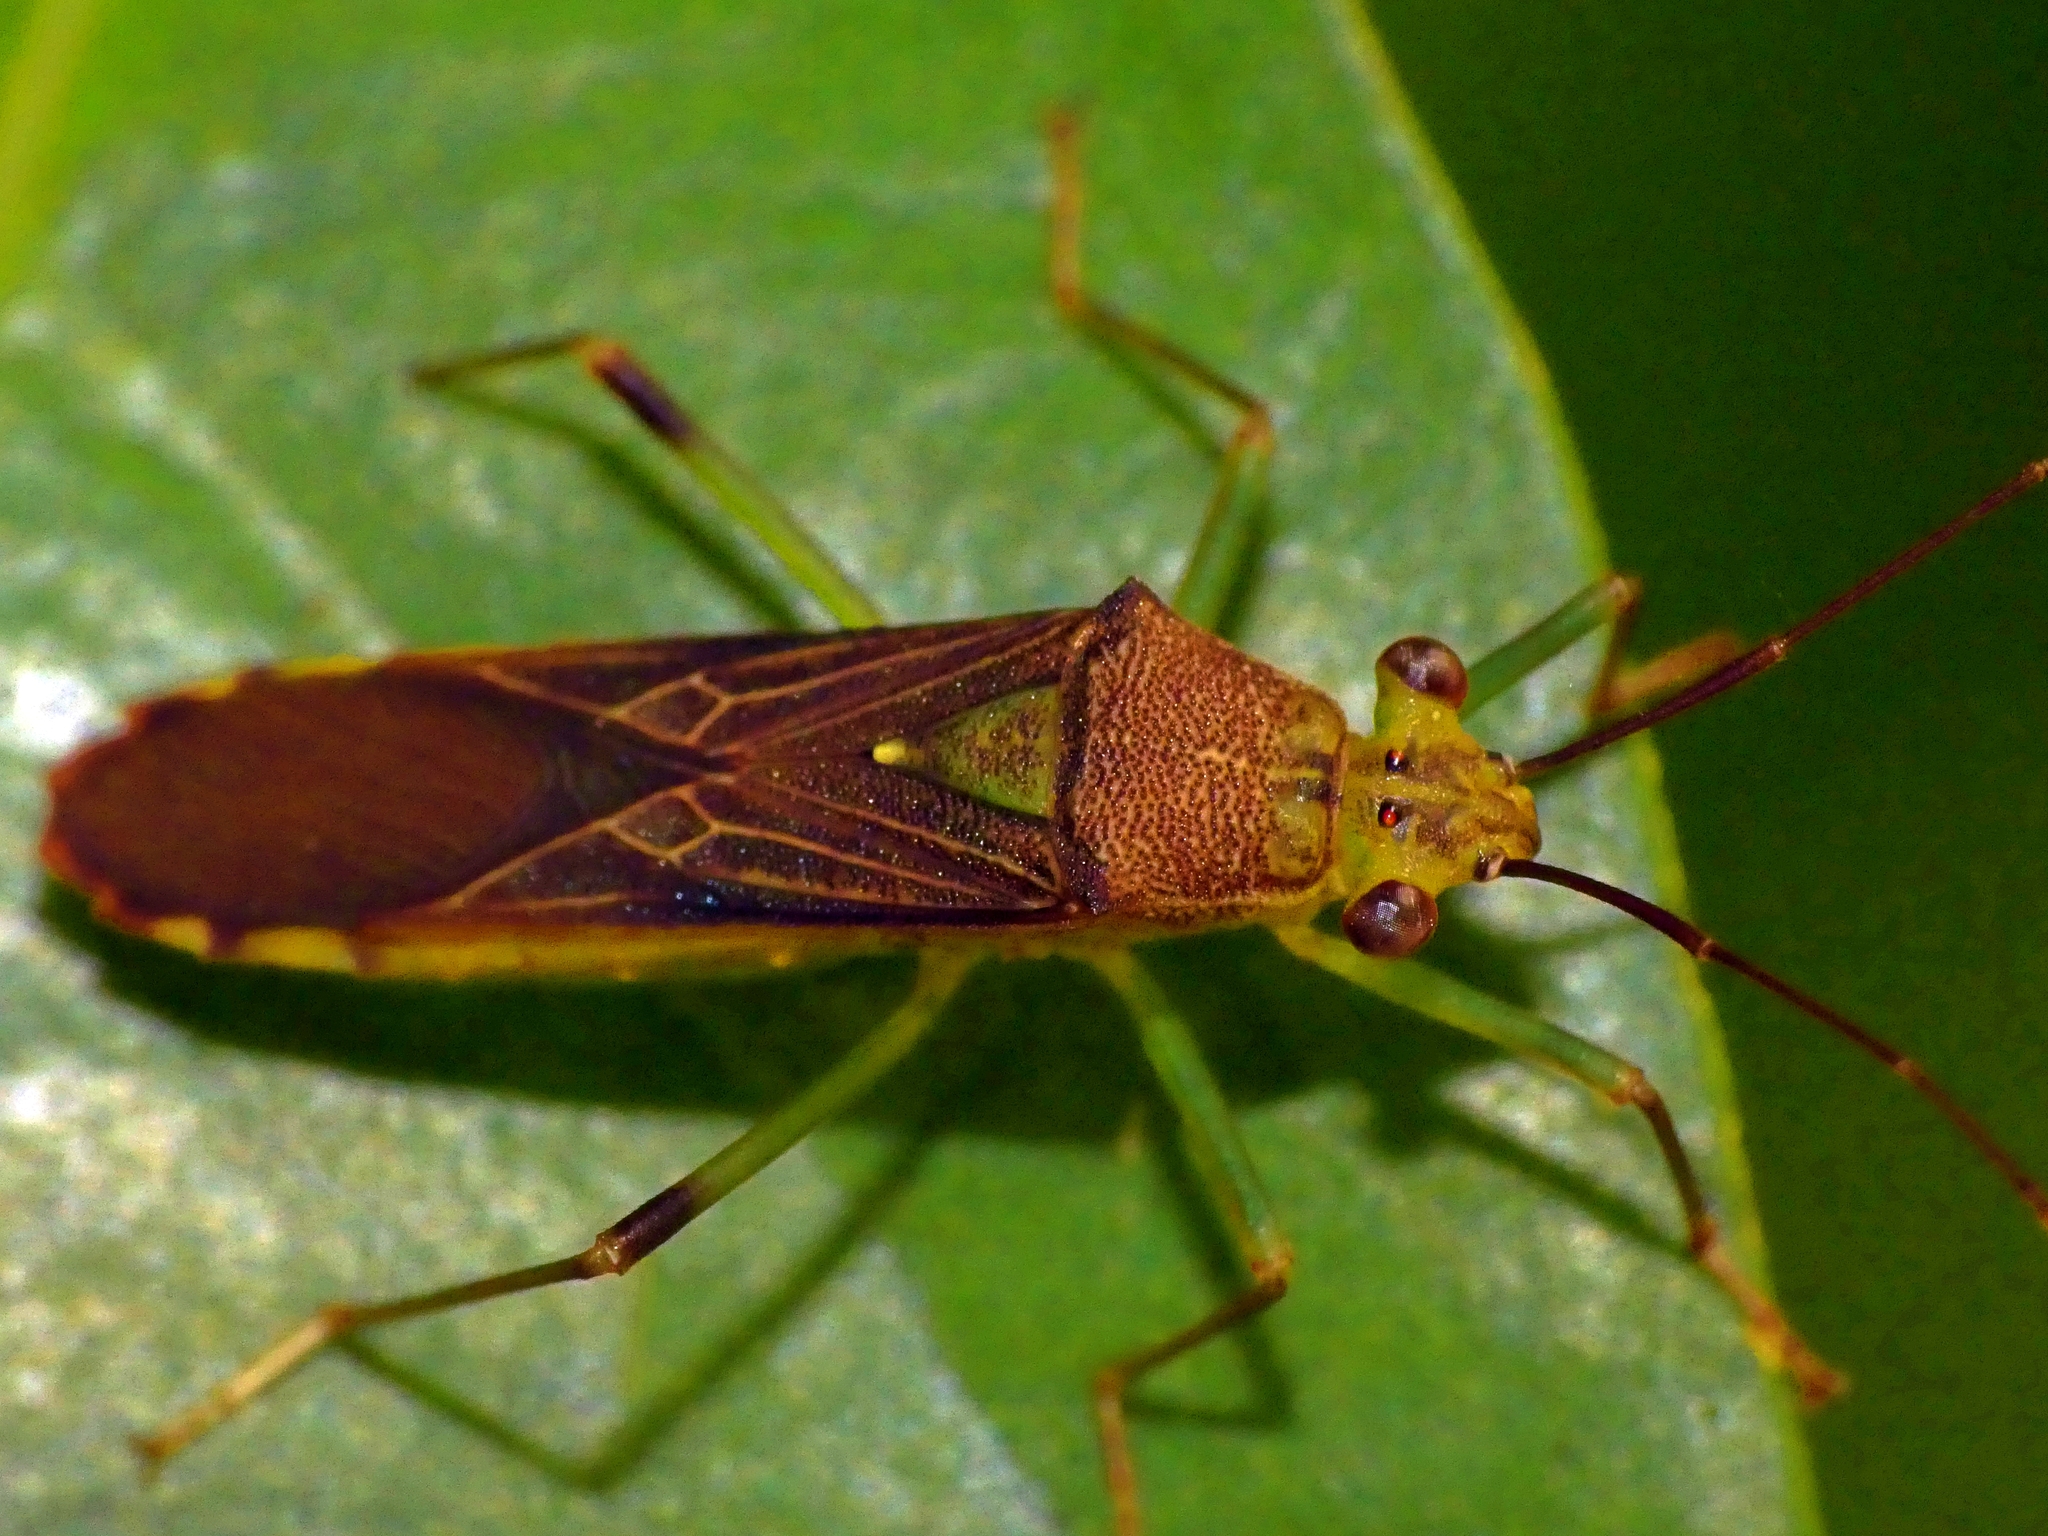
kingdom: Animalia
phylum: Arthropoda
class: Insecta
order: Hemiptera
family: Coreidae
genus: Piramurana
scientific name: Piramurana cyclops
